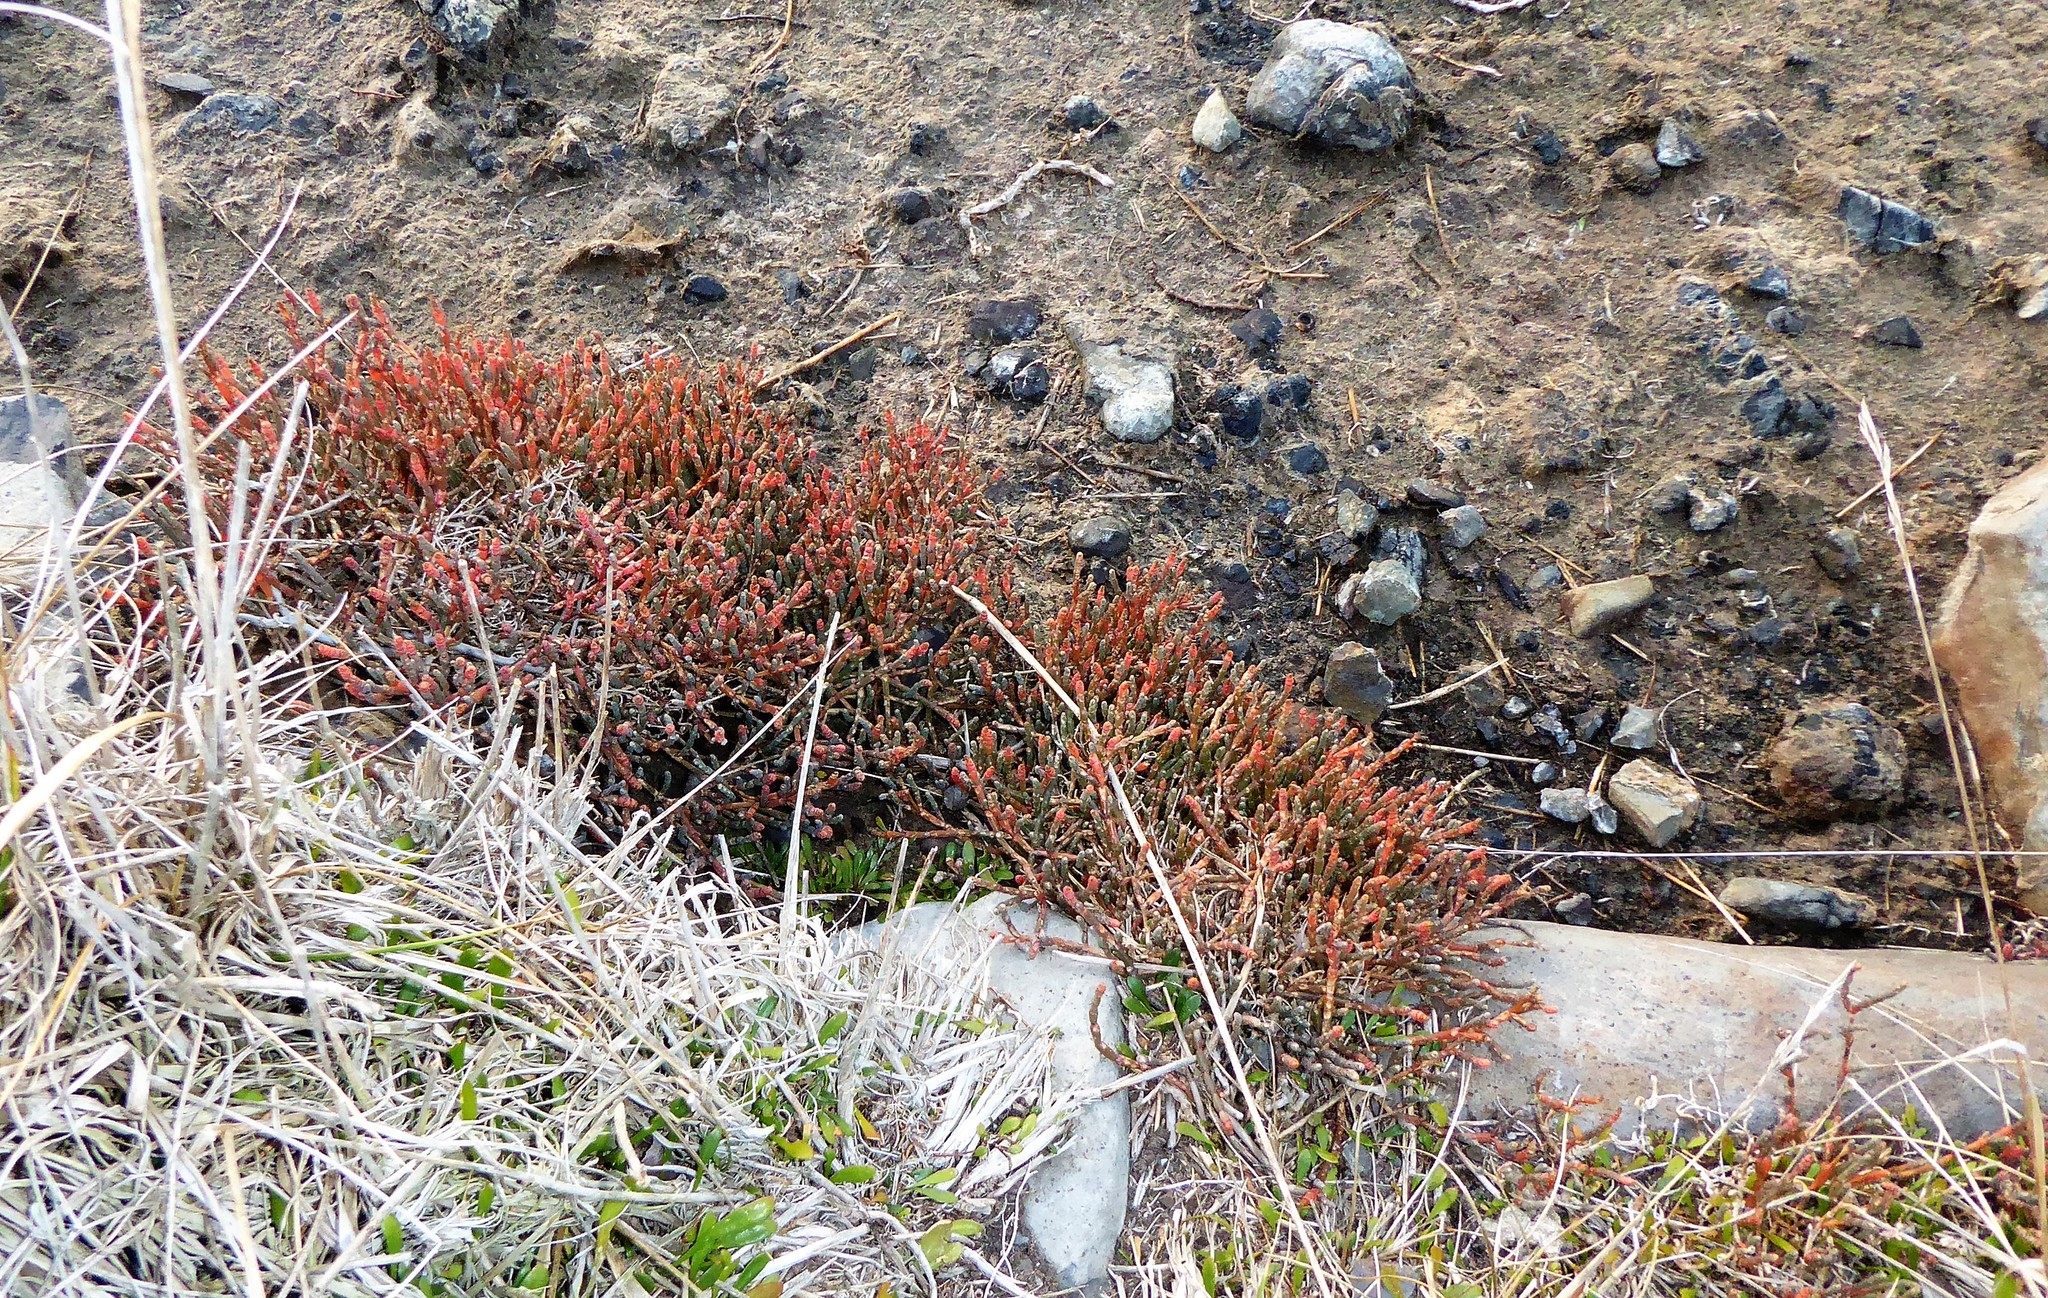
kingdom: Plantae
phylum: Tracheophyta
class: Magnoliopsida
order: Caryophyllales
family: Amaranthaceae
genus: Salicornia
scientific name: Salicornia quinqueflora
